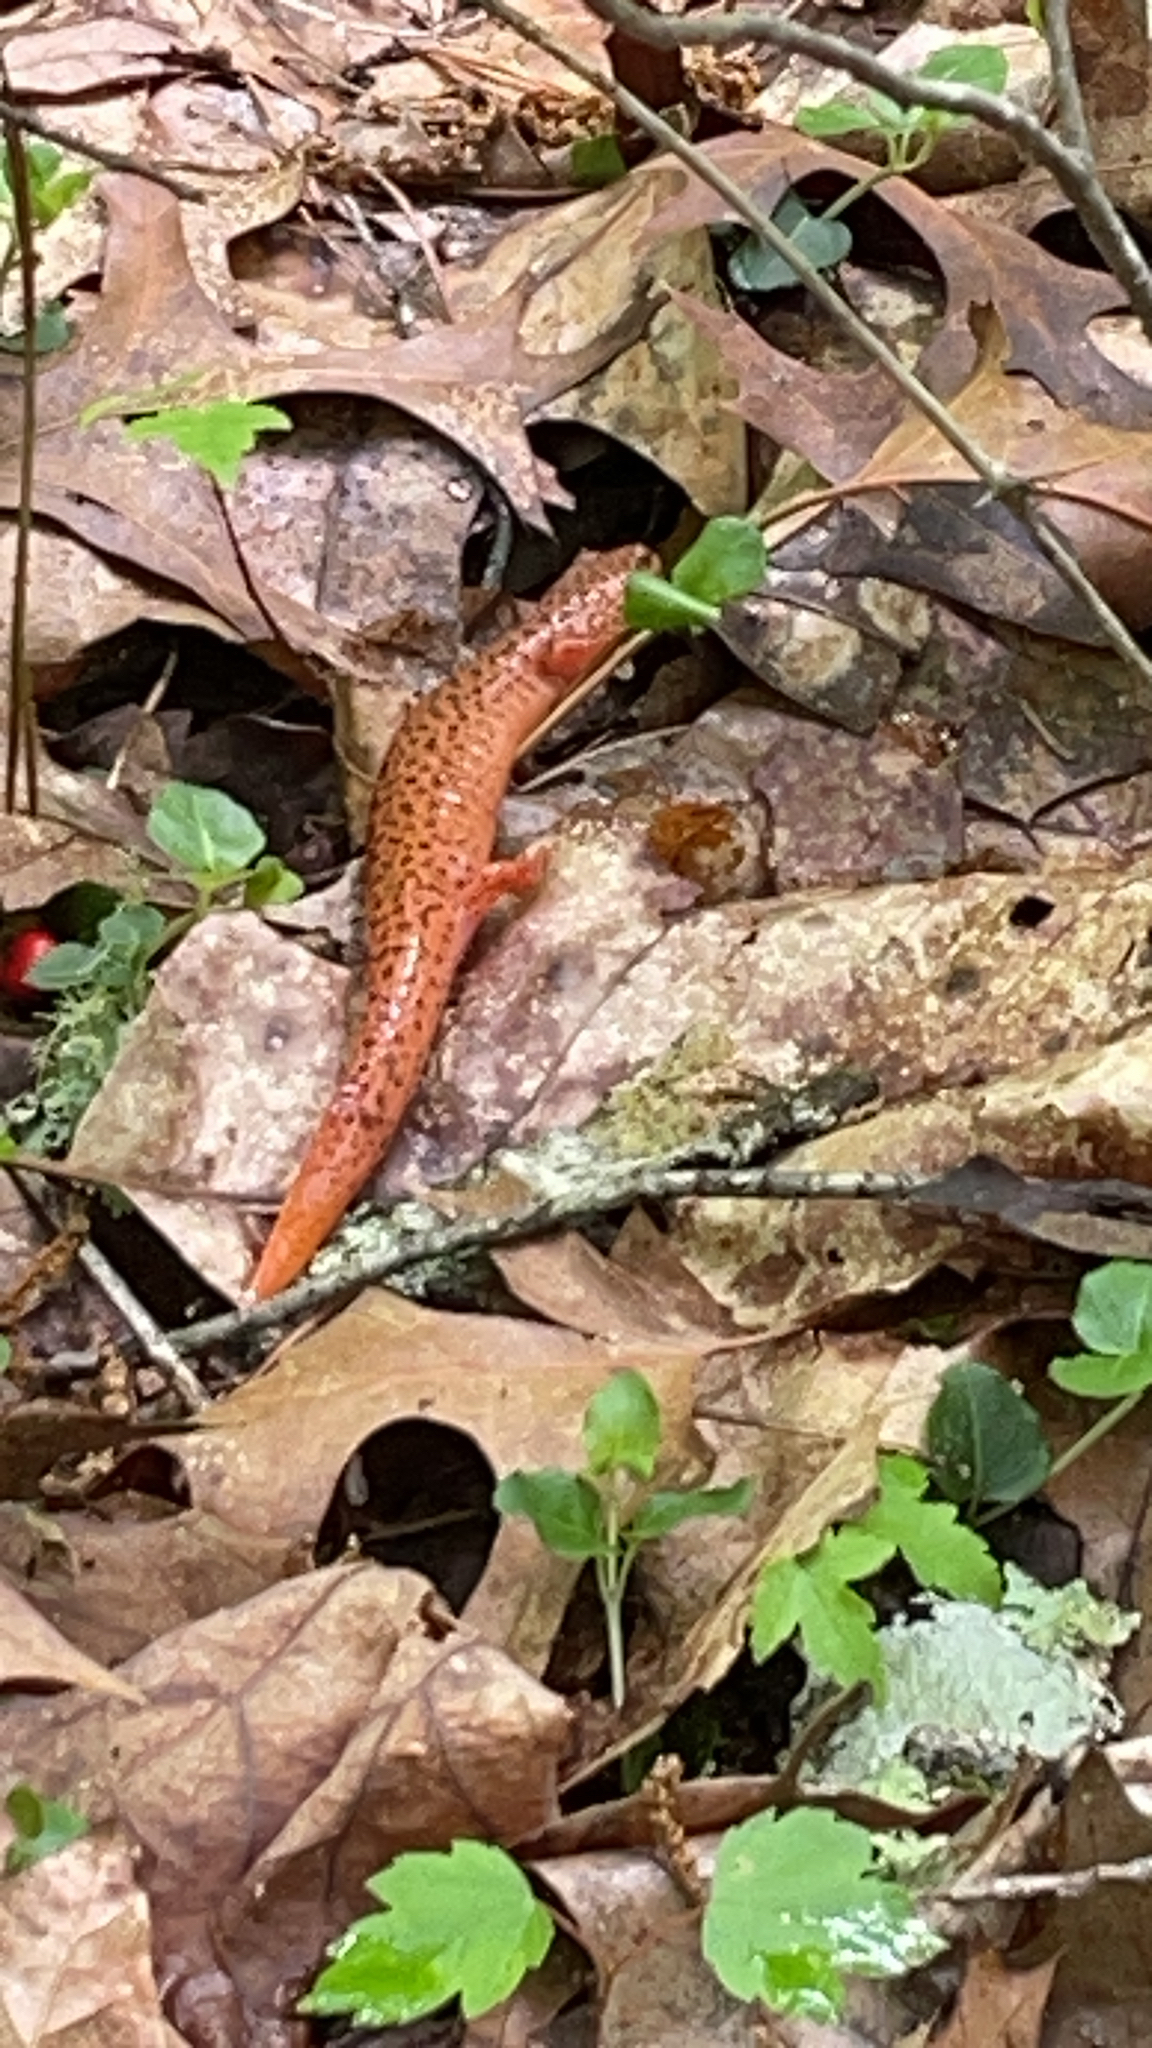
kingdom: Animalia
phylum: Chordata
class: Amphibia
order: Caudata
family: Plethodontidae
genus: Pseudotriton
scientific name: Pseudotriton ruber
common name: Red salamander
